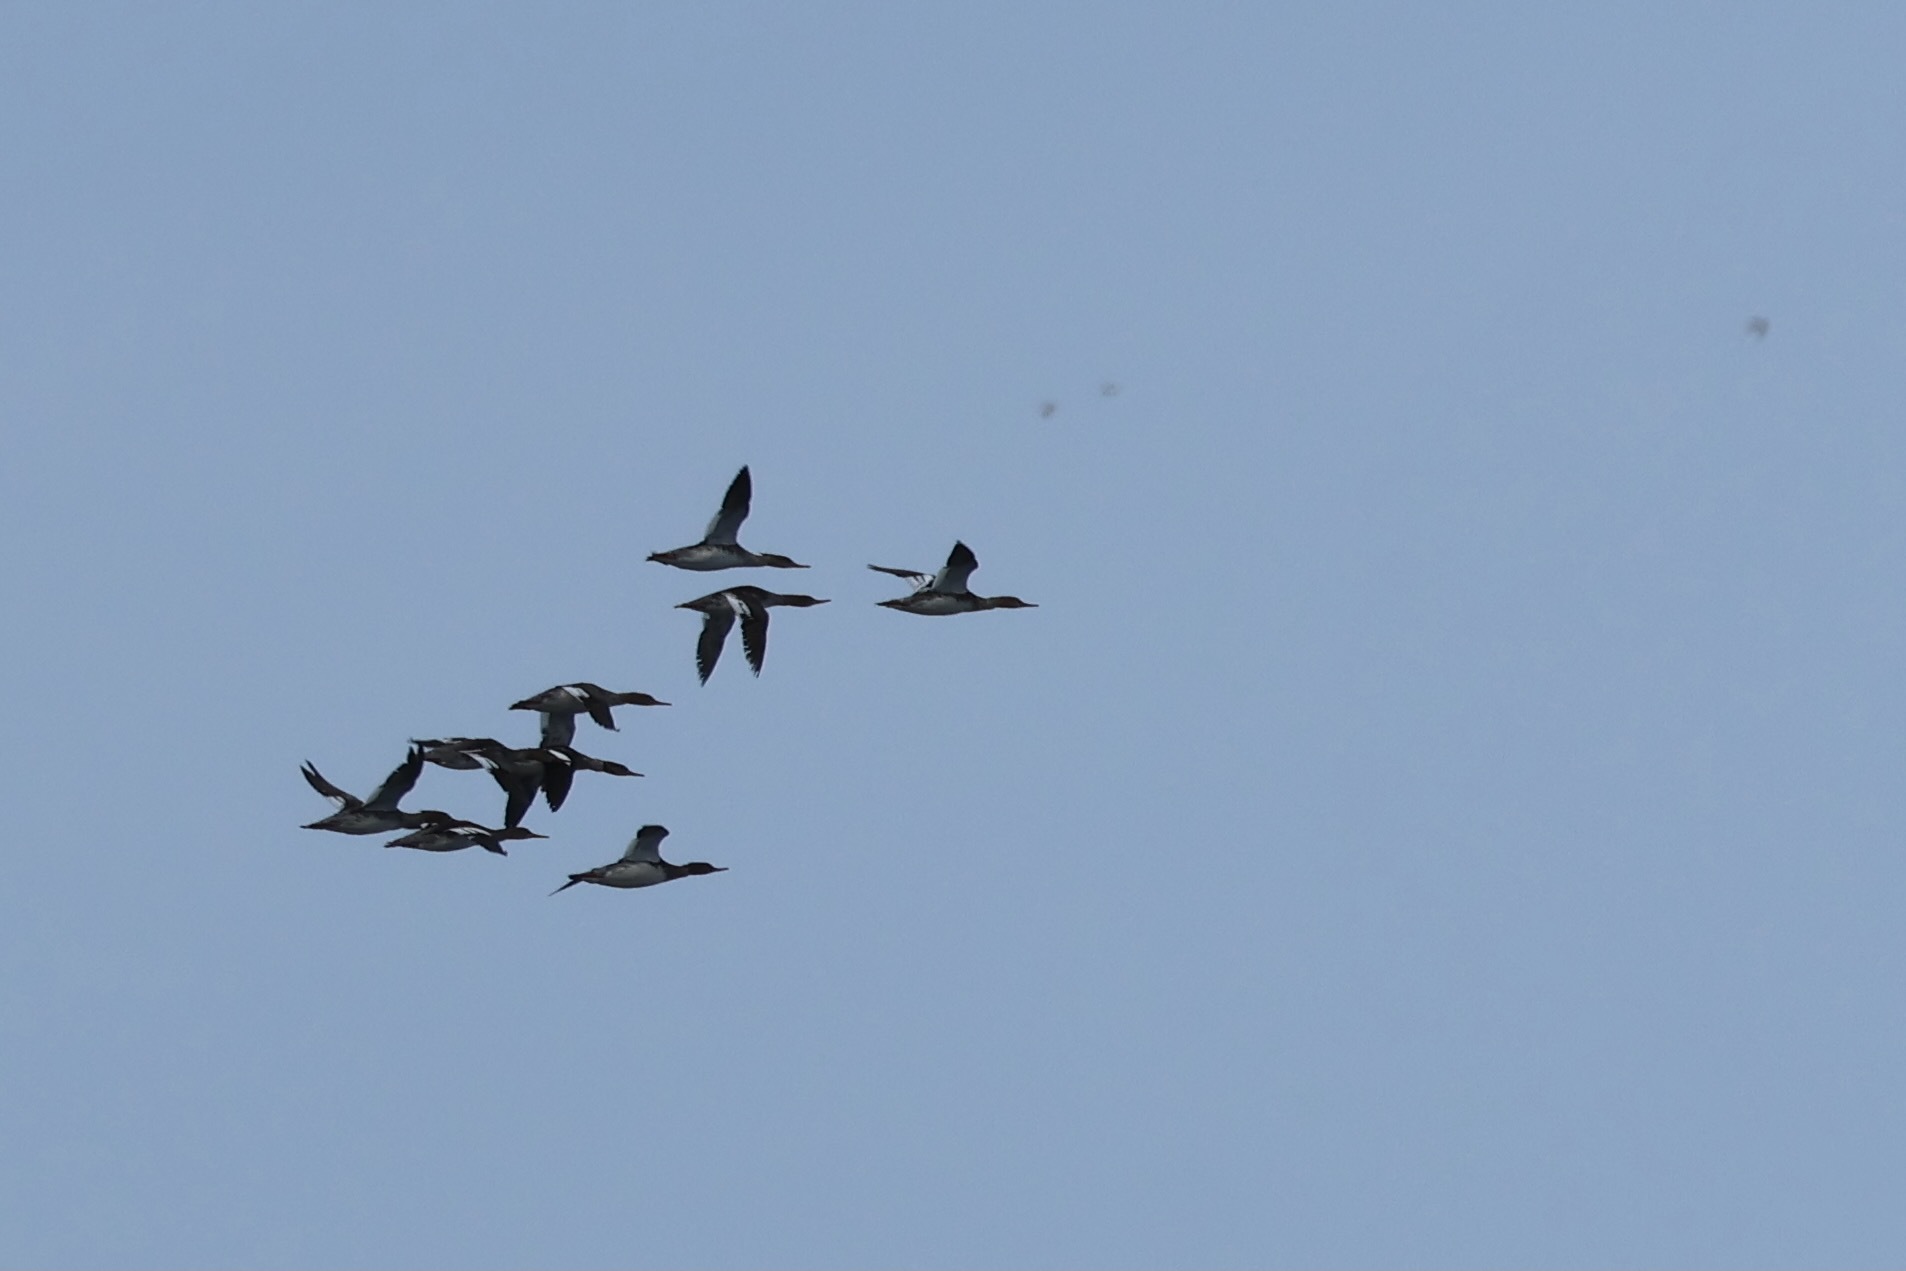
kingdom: Animalia
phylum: Chordata
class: Aves
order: Anseriformes
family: Anatidae
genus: Mergus
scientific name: Mergus serrator
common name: Red-breasted merganser
